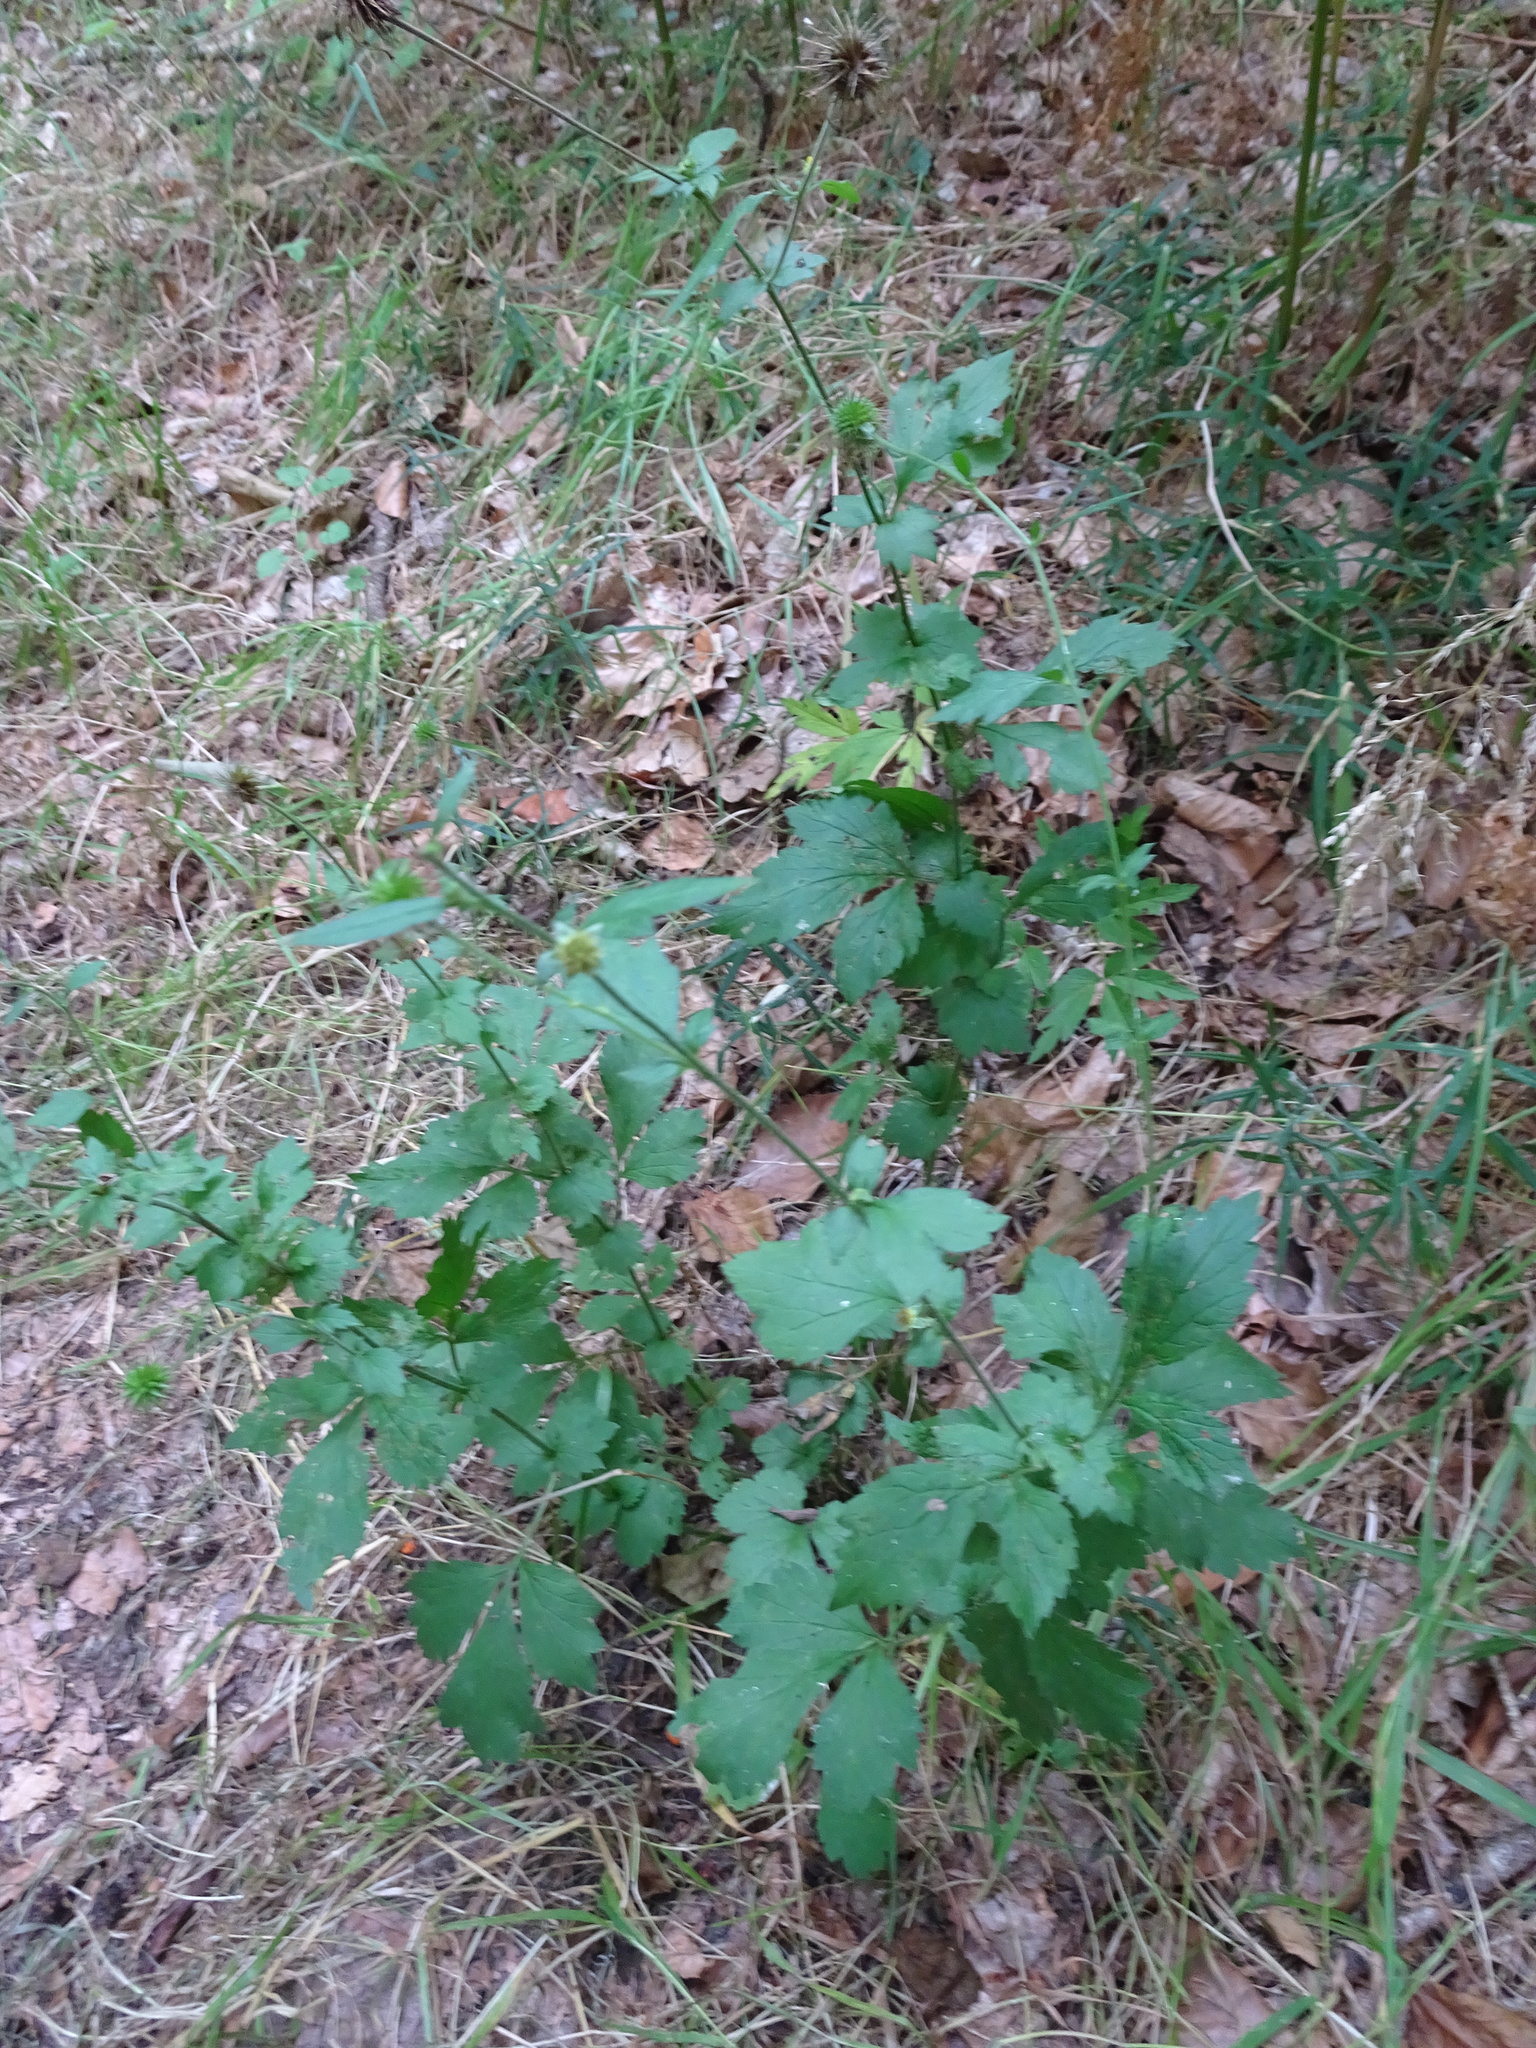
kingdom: Plantae
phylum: Tracheophyta
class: Magnoliopsida
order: Rosales
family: Rosaceae
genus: Geum
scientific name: Geum urbanum
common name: Wood avens
